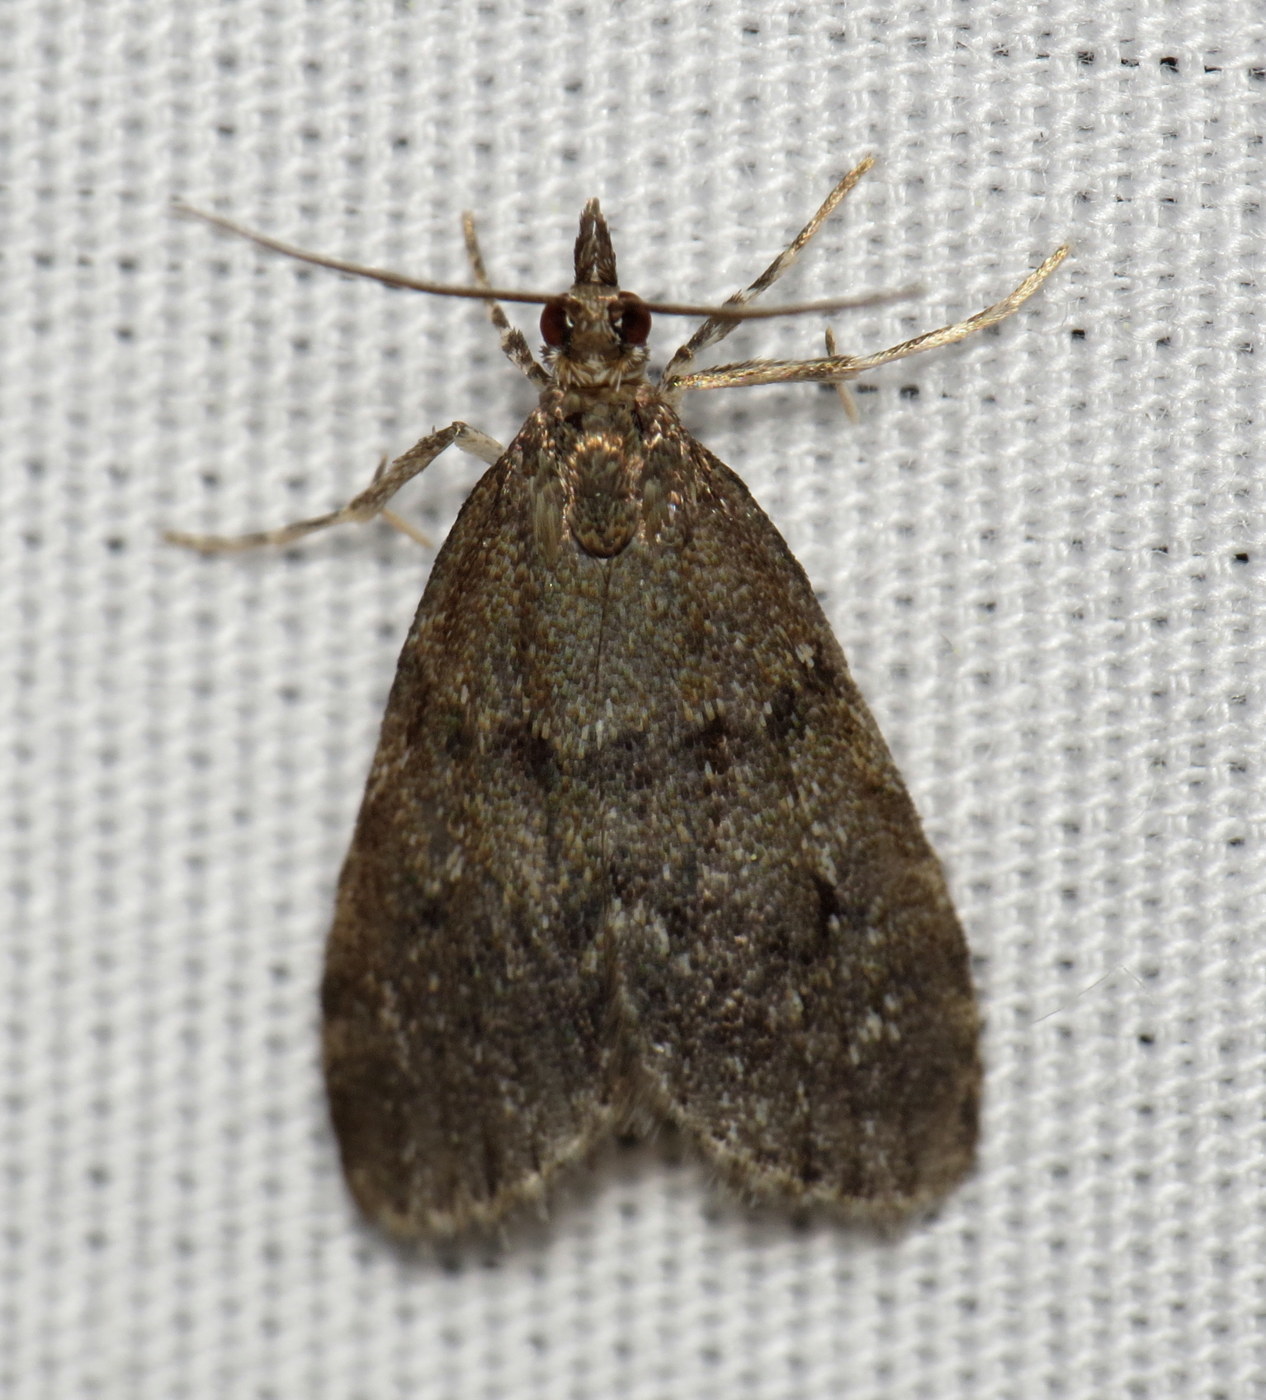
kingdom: Animalia
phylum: Arthropoda
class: Insecta
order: Lepidoptera
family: Crambidae
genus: Scoparia
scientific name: Scoparia penumbralis
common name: Dark brown scoparia moth
